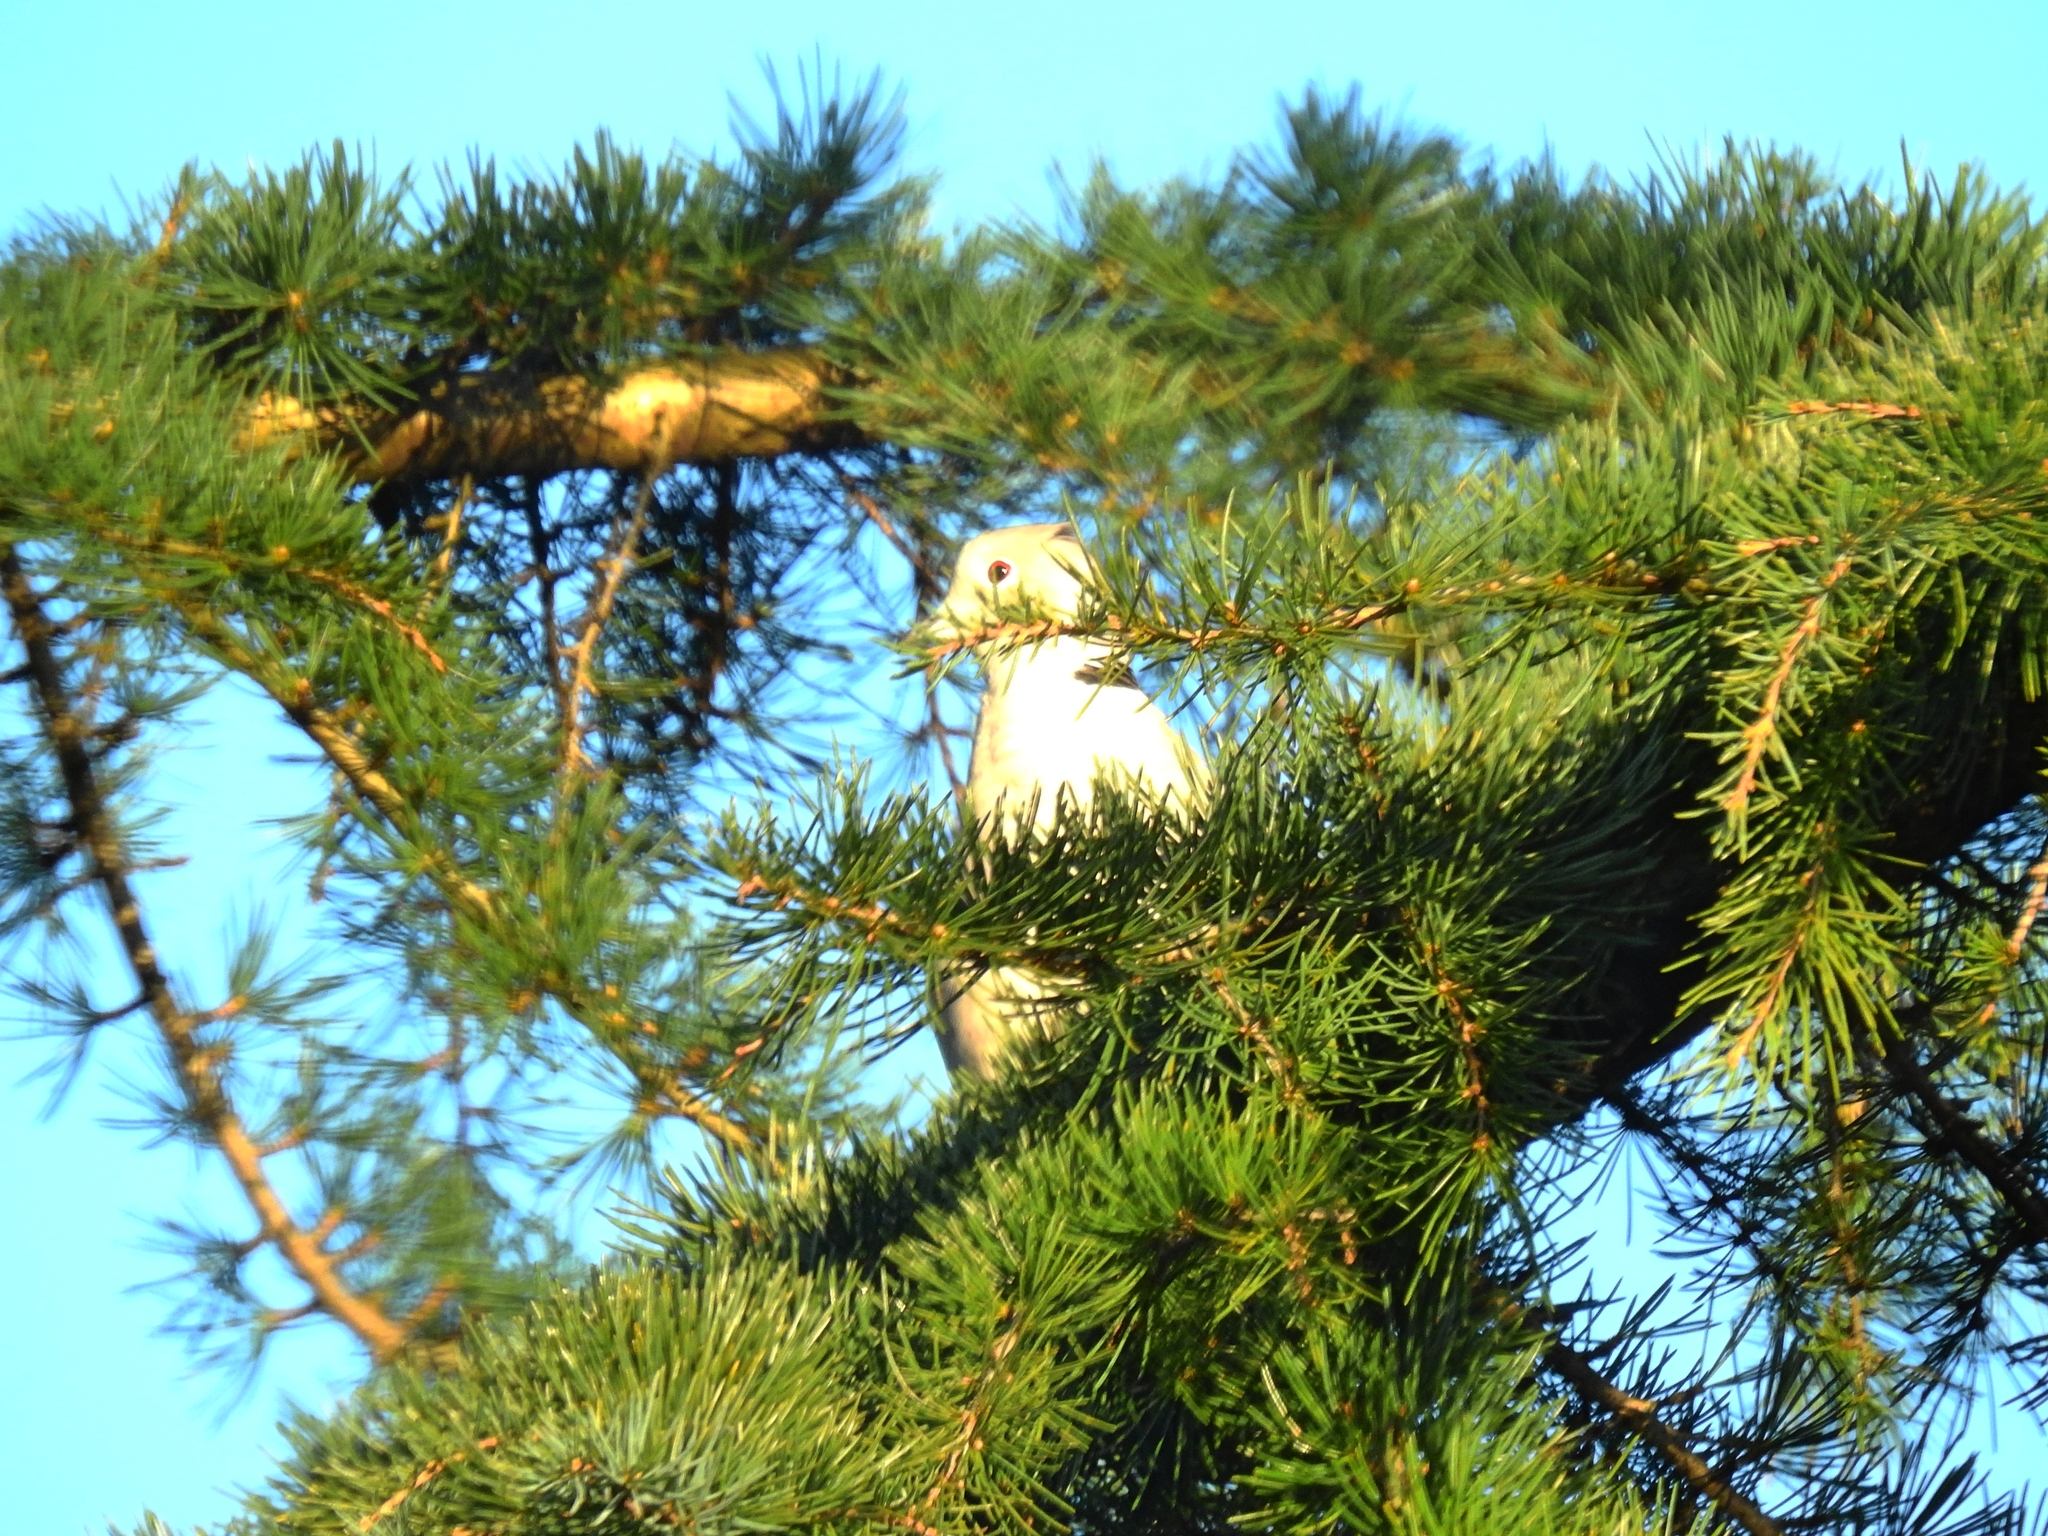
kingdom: Animalia
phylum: Chordata
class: Aves
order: Columbiformes
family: Columbidae
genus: Streptopelia
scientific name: Streptopelia decaocto
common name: Eurasian collared dove
